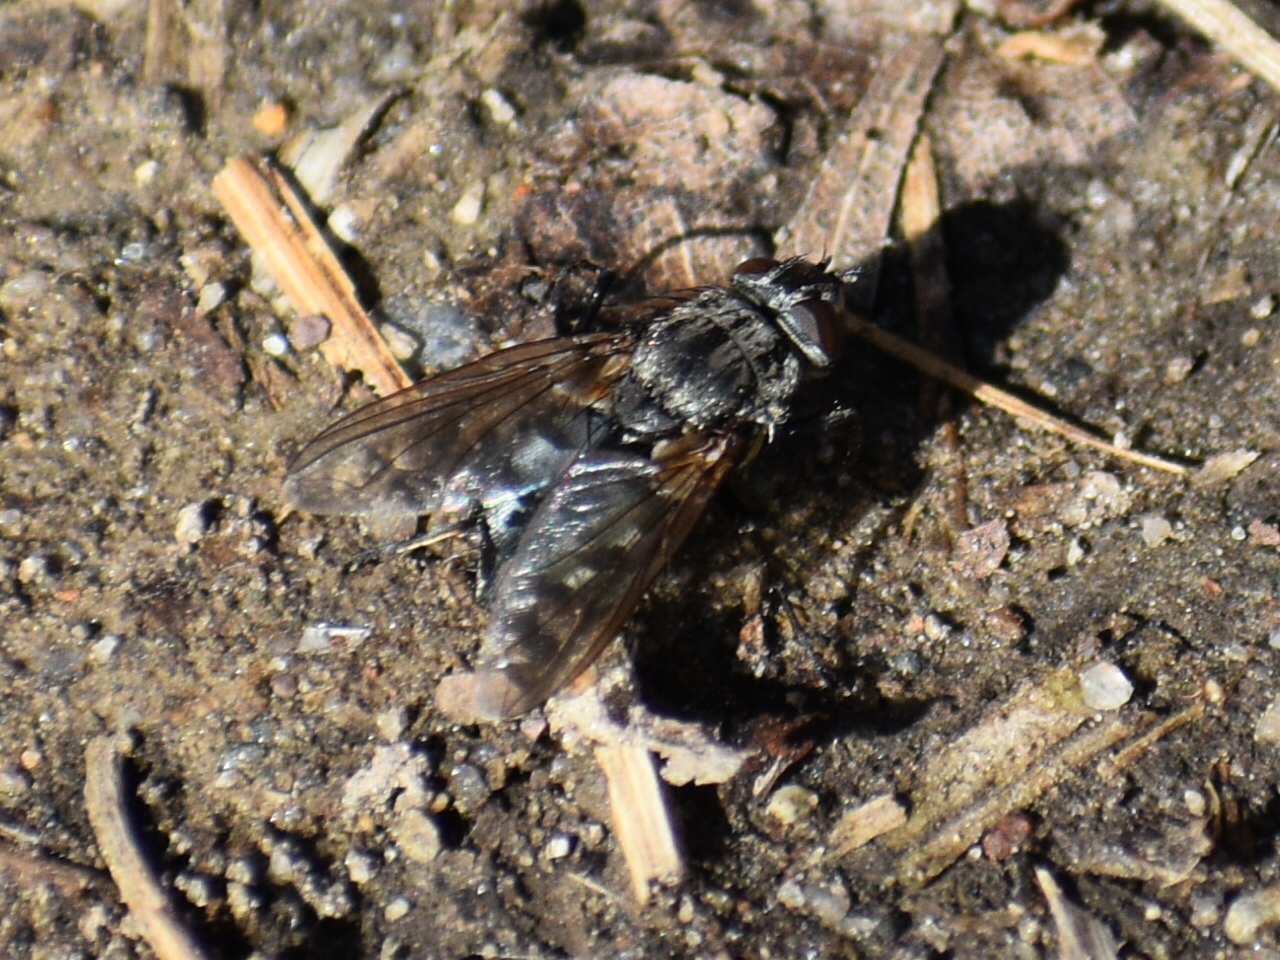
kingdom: Animalia
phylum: Arthropoda
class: Insecta
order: Diptera
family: Polleniidae
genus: Pollenia
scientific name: Pollenia vagabunda
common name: Vagabund cluster fly
